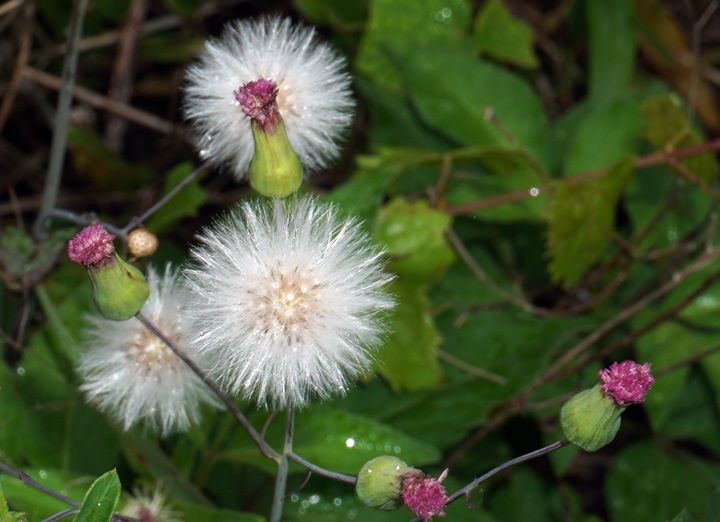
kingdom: Plantae
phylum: Tracheophyta
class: Magnoliopsida
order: Asterales
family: Asteraceae
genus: Emilia
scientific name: Emilia sonchifolia
